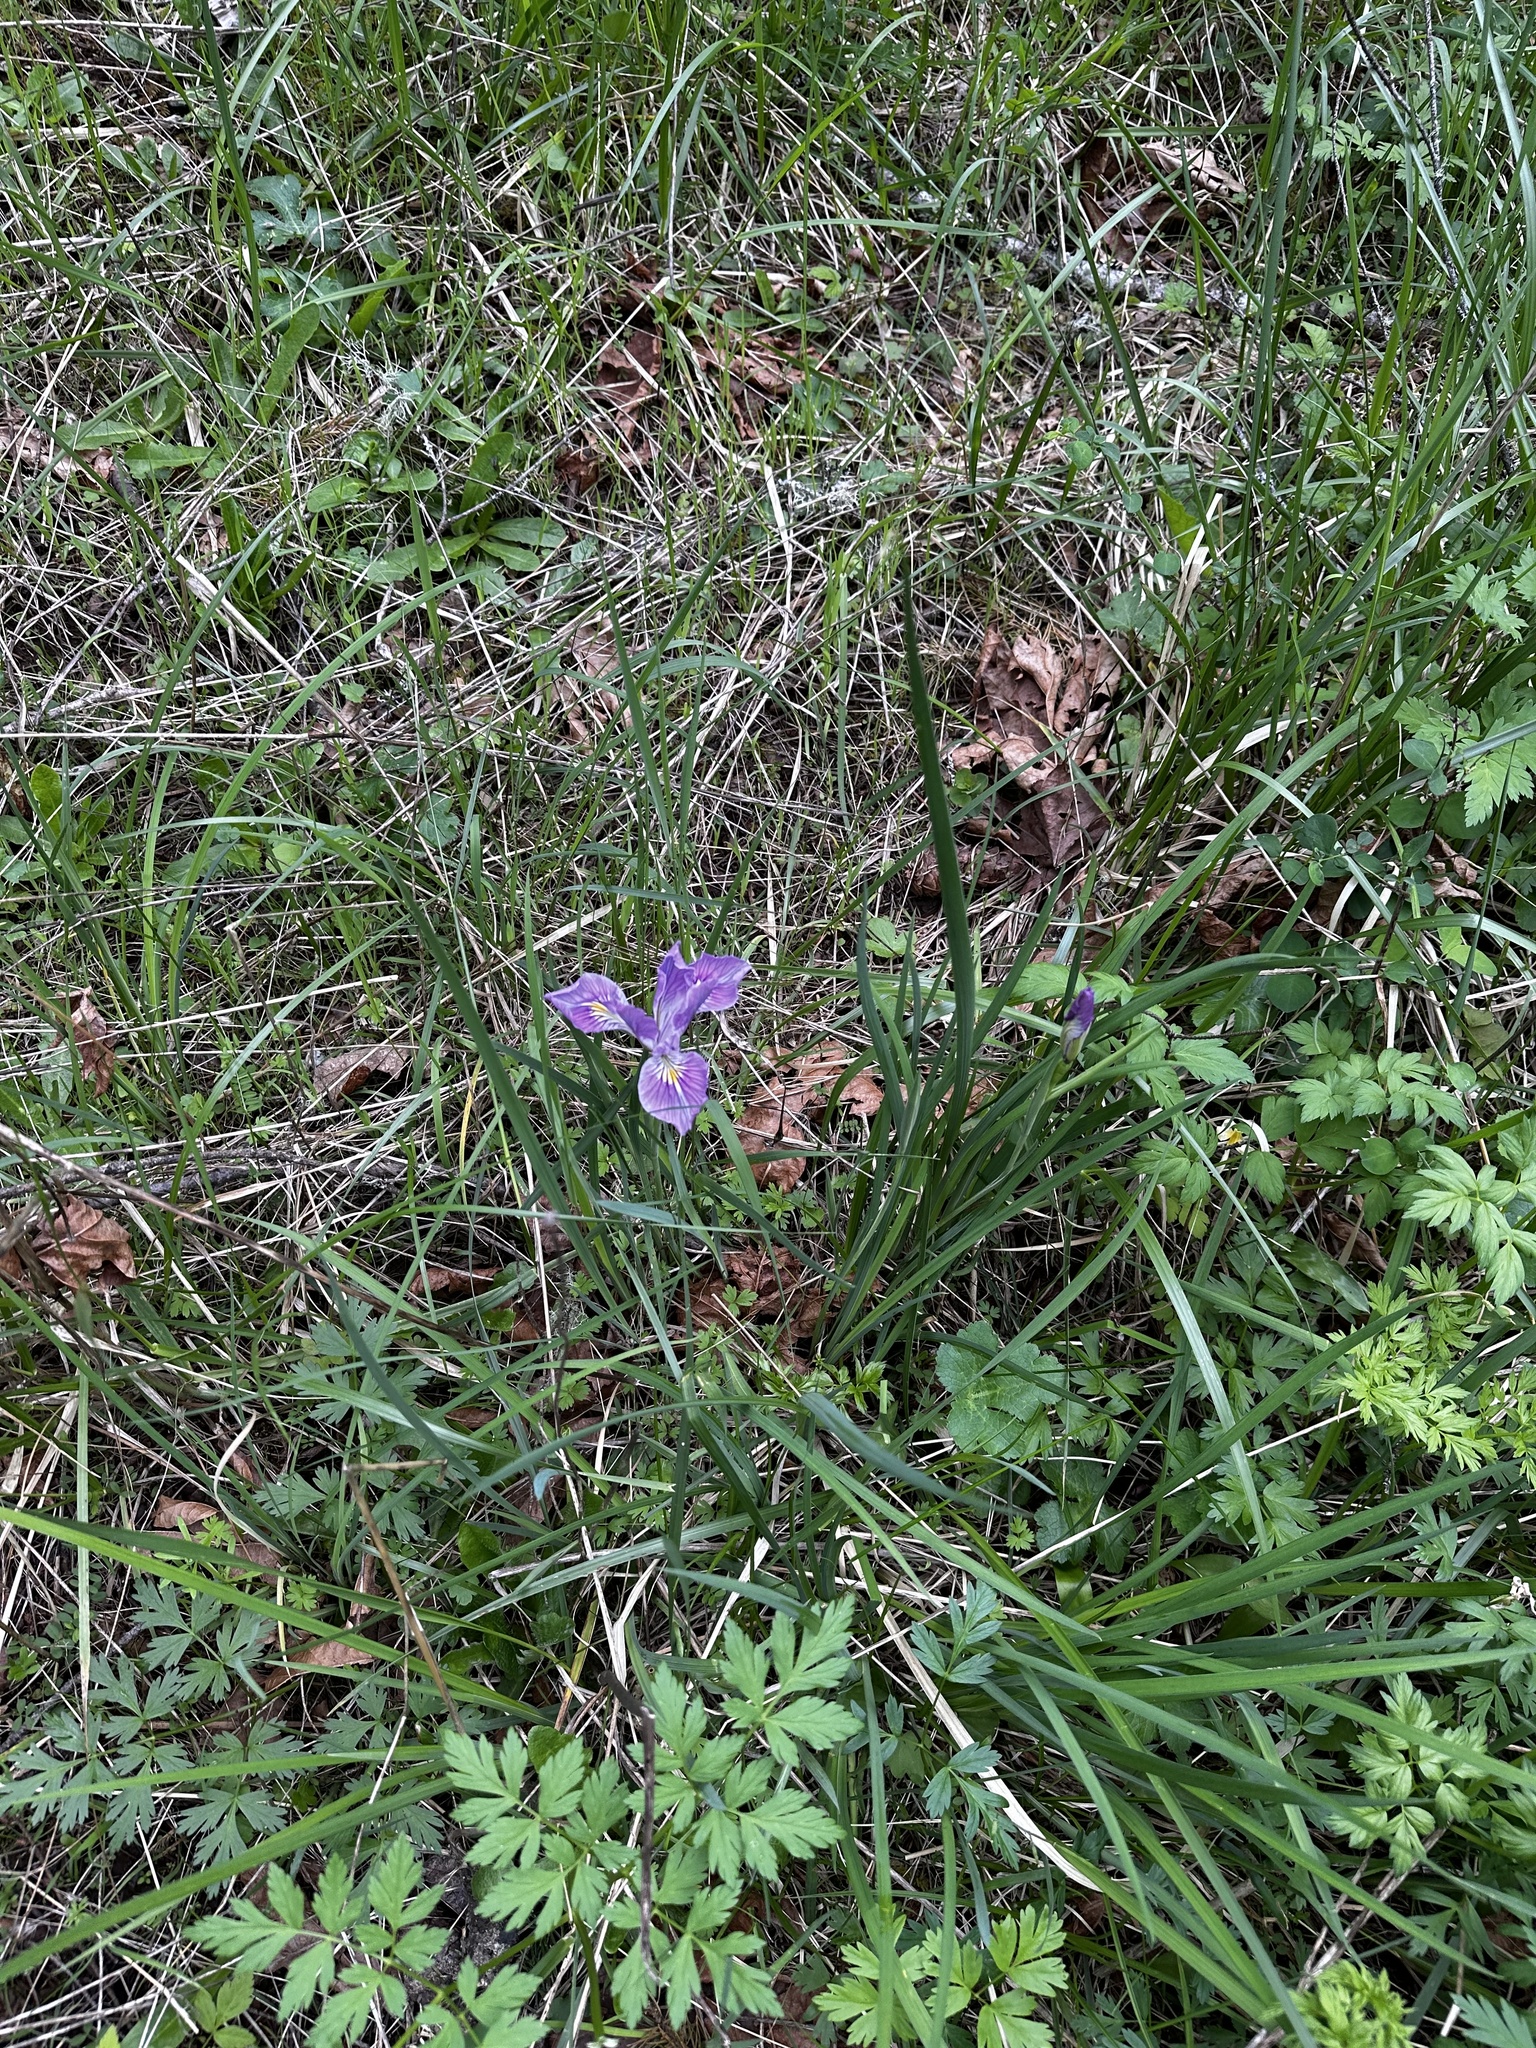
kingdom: Plantae
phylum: Tracheophyta
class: Liliopsida
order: Asparagales
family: Iridaceae
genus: Iris
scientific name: Iris tenax
